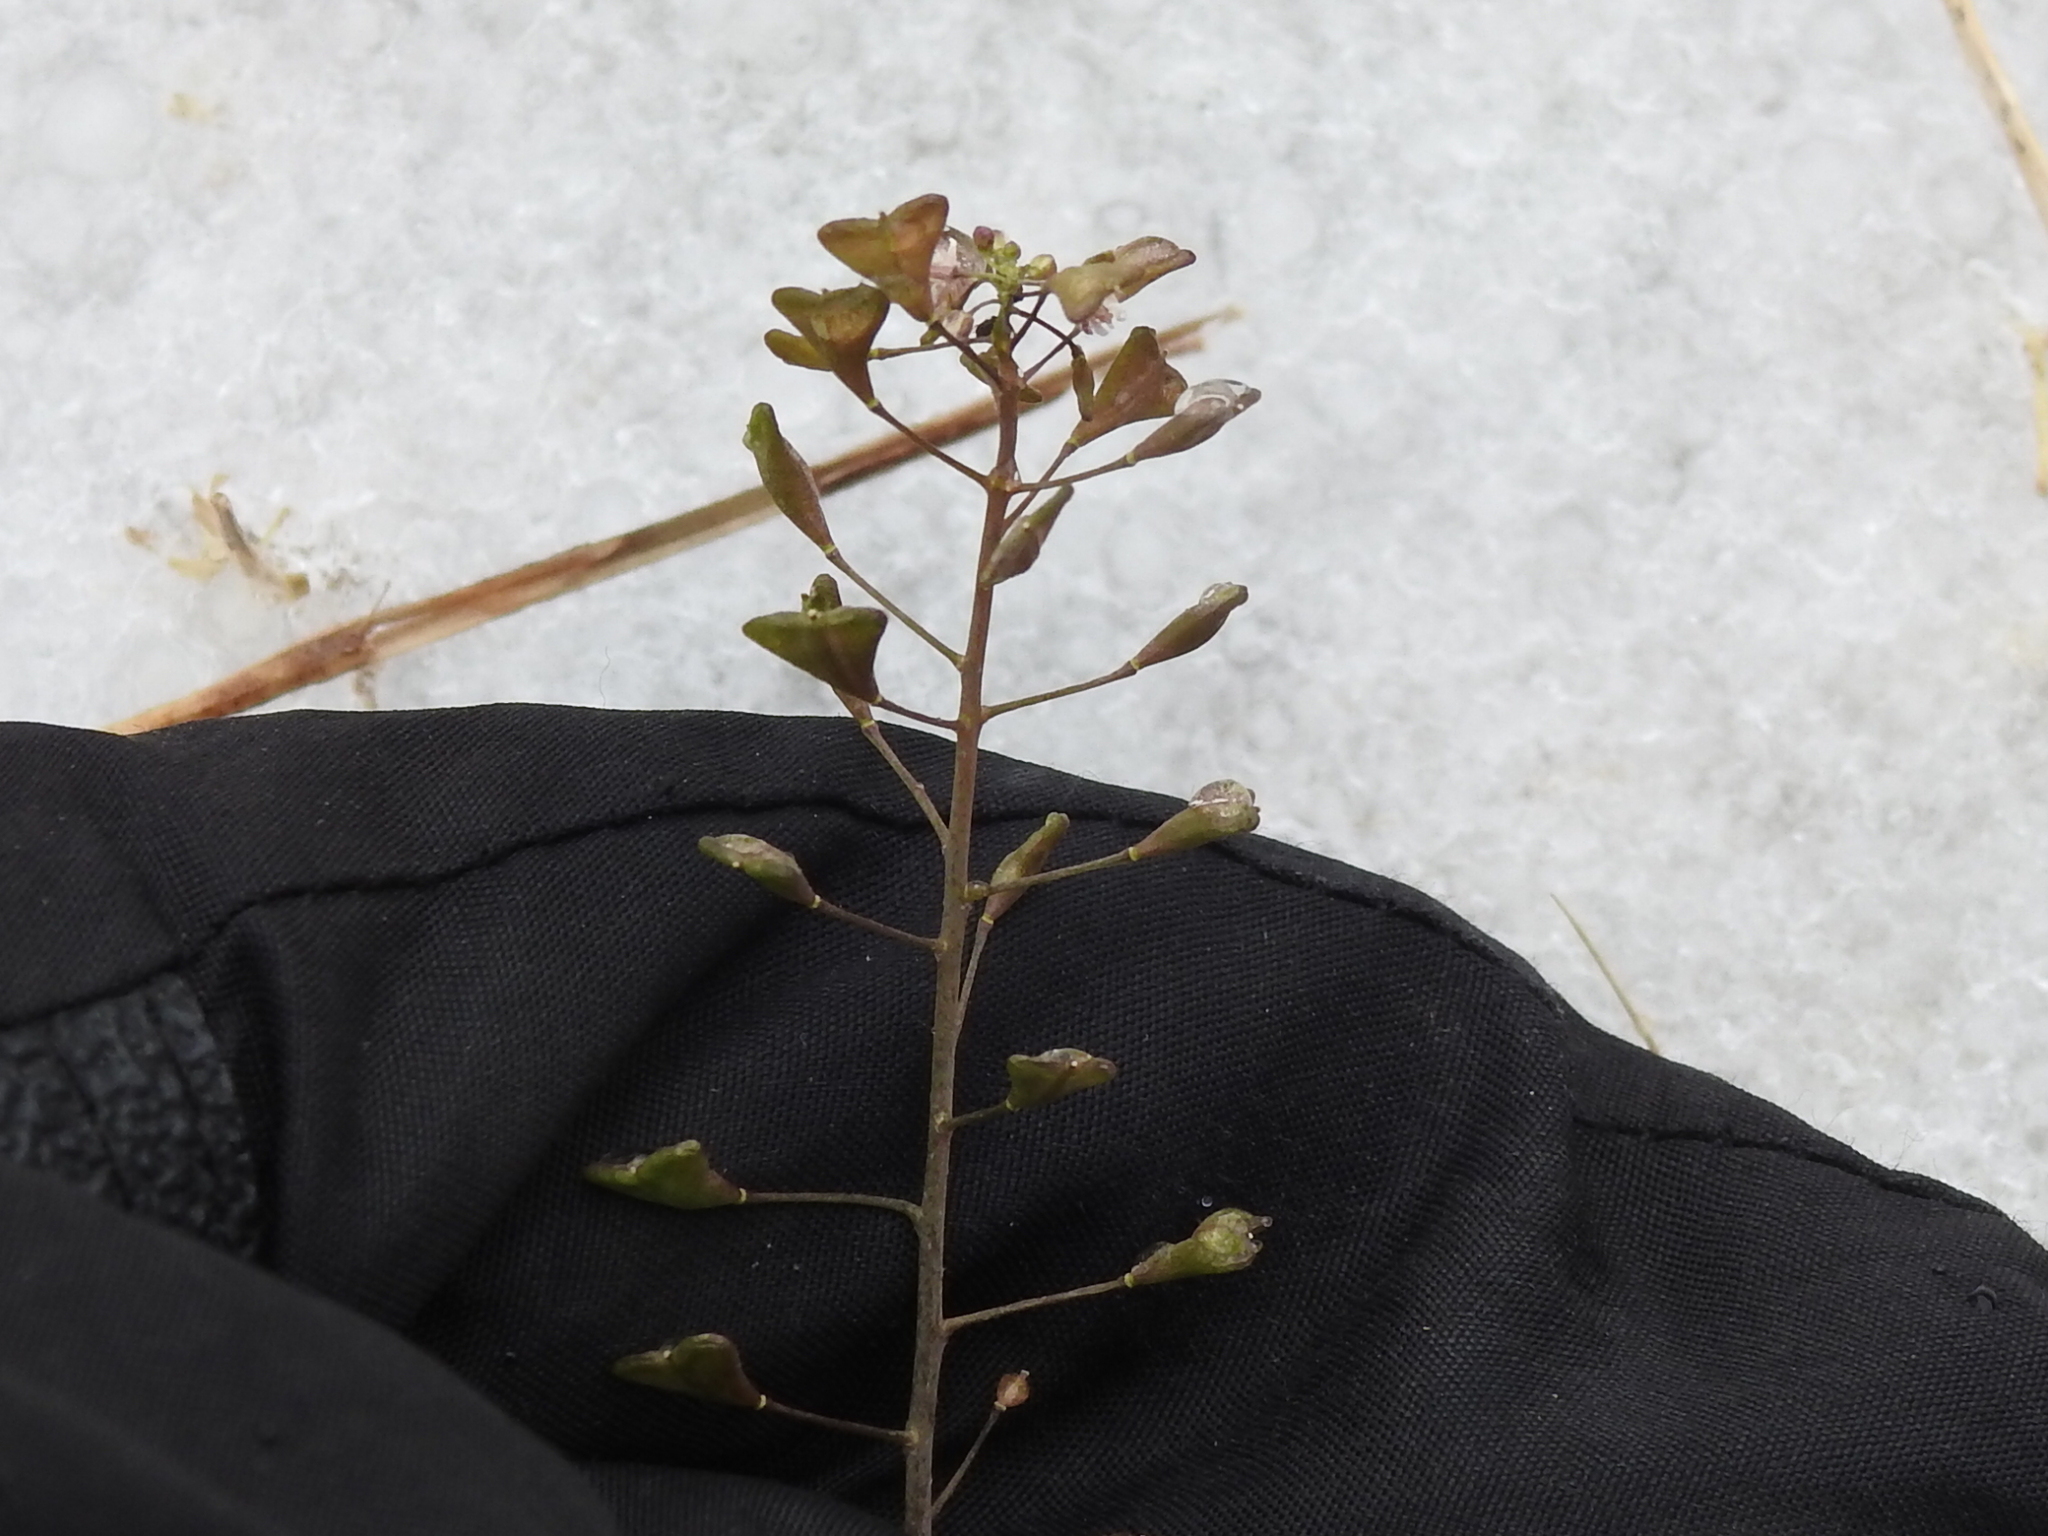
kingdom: Plantae
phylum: Tracheophyta
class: Magnoliopsida
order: Brassicales
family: Brassicaceae
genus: Capsella
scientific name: Capsella bursa-pastoris
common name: Shepherd's purse
